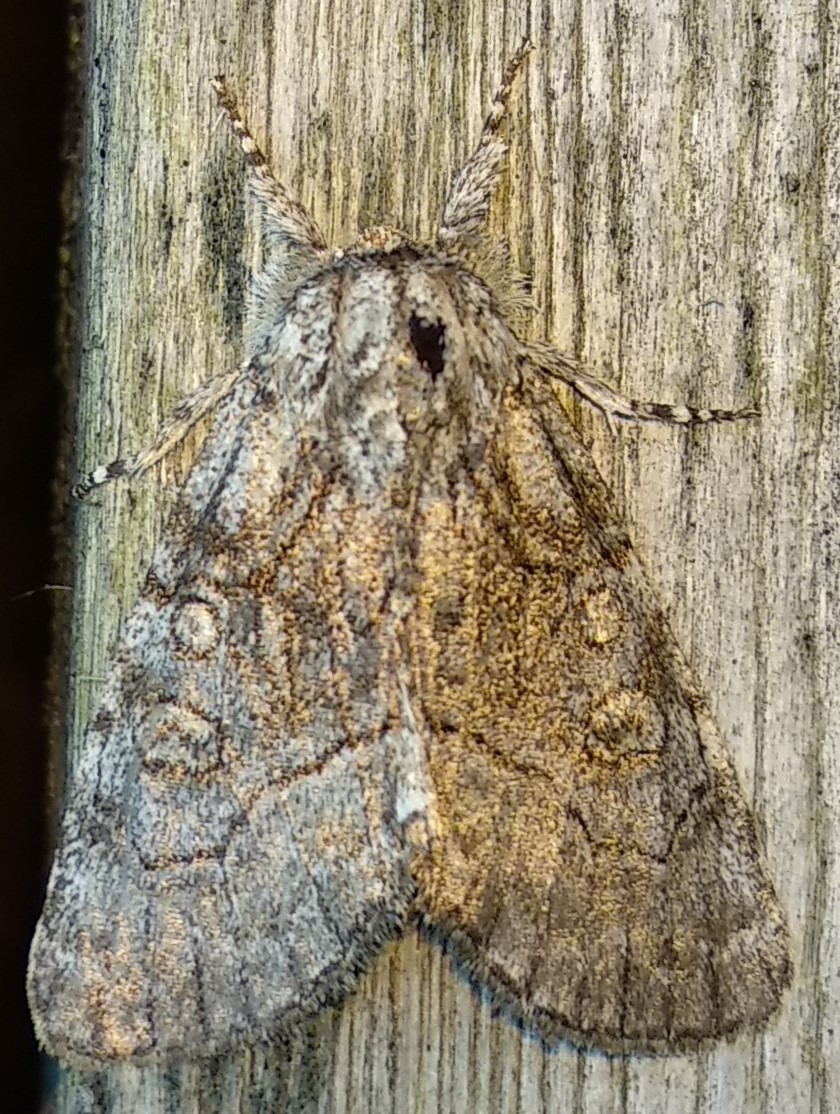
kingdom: Animalia
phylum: Arthropoda
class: Insecta
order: Lepidoptera
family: Noctuidae
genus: Raphia
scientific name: Raphia frater
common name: Brother
